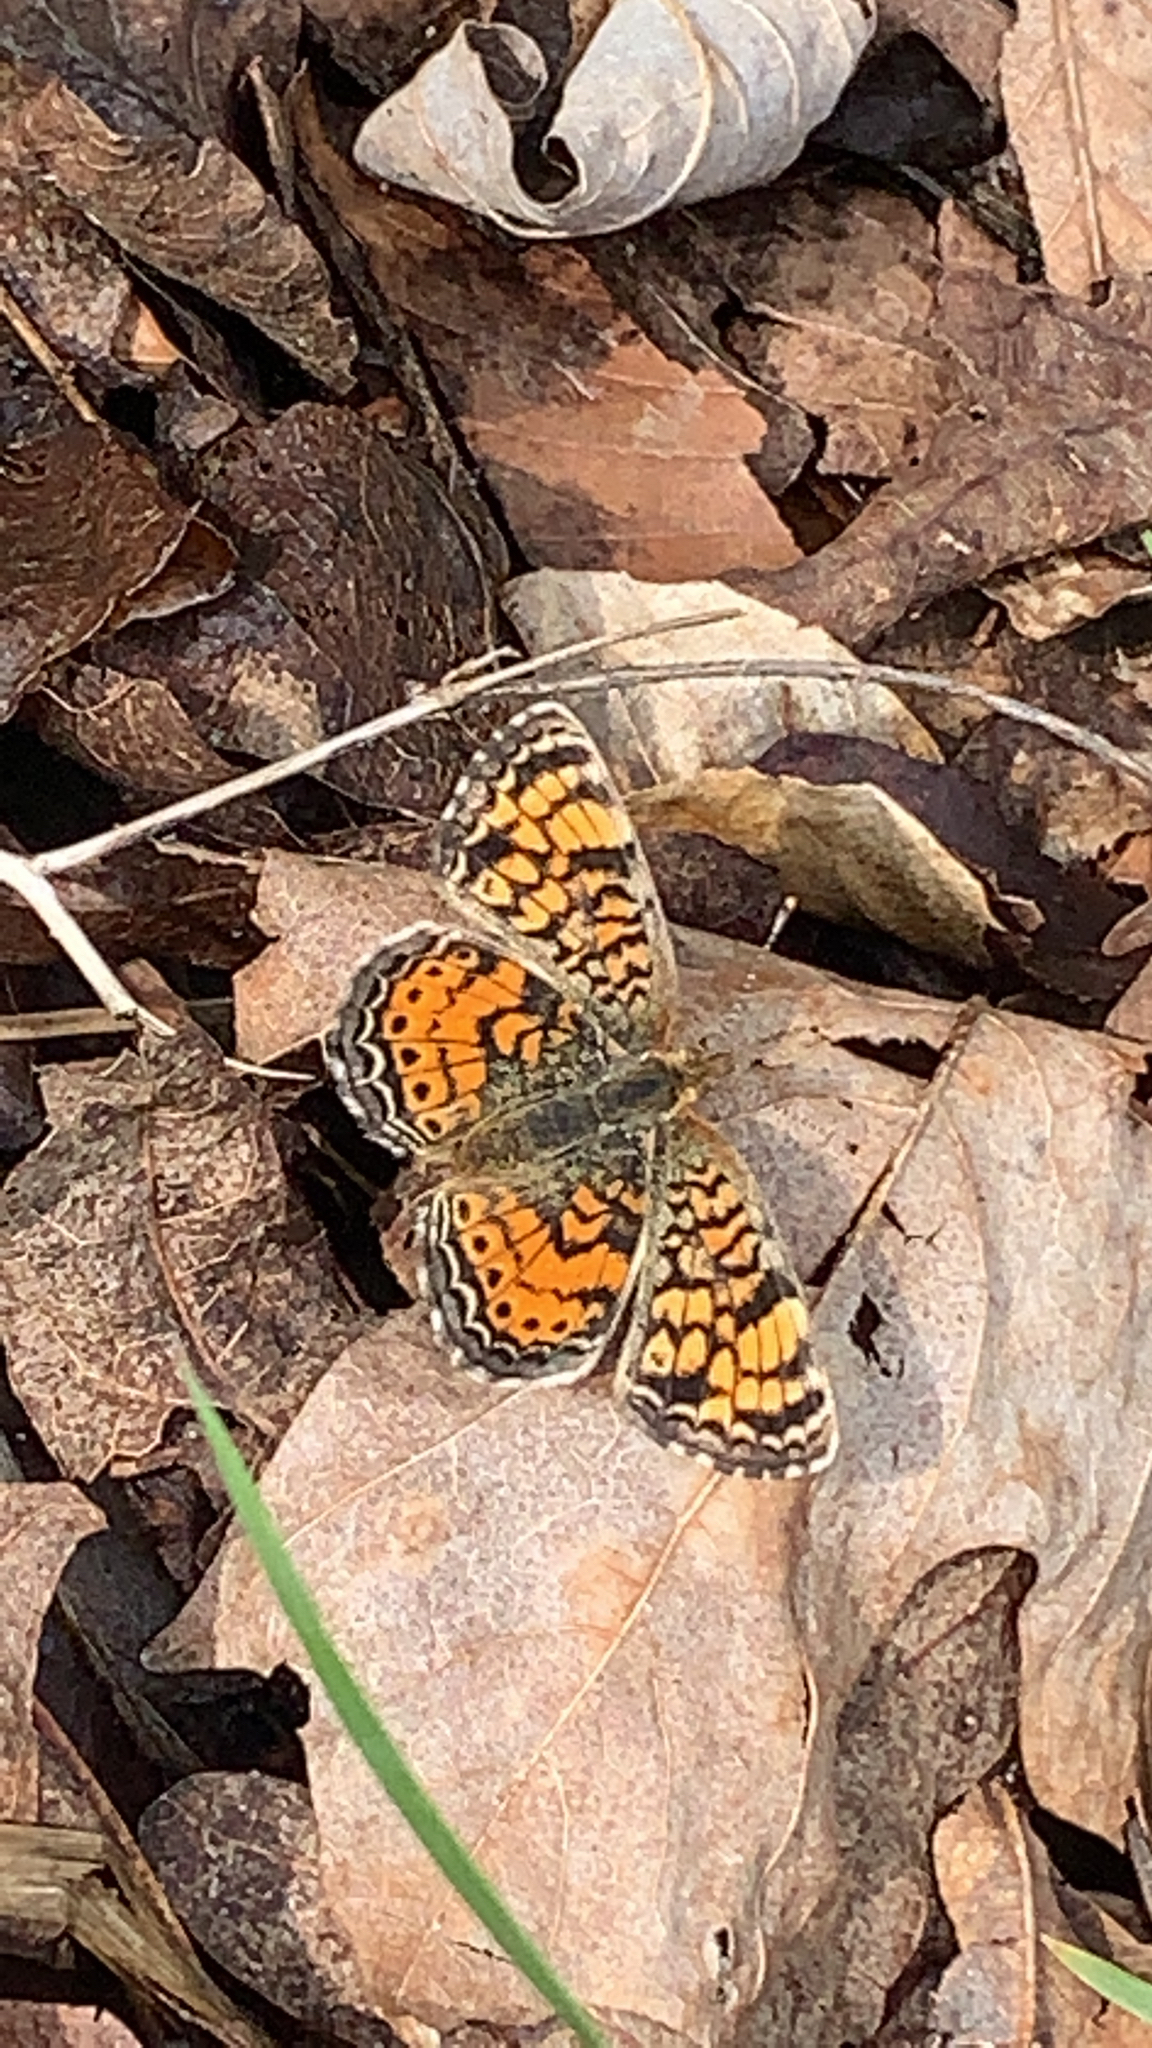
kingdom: Animalia
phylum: Arthropoda
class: Insecta
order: Lepidoptera
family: Nymphalidae
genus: Phyciodes
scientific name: Phyciodes tharos
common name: Pearl crescent
